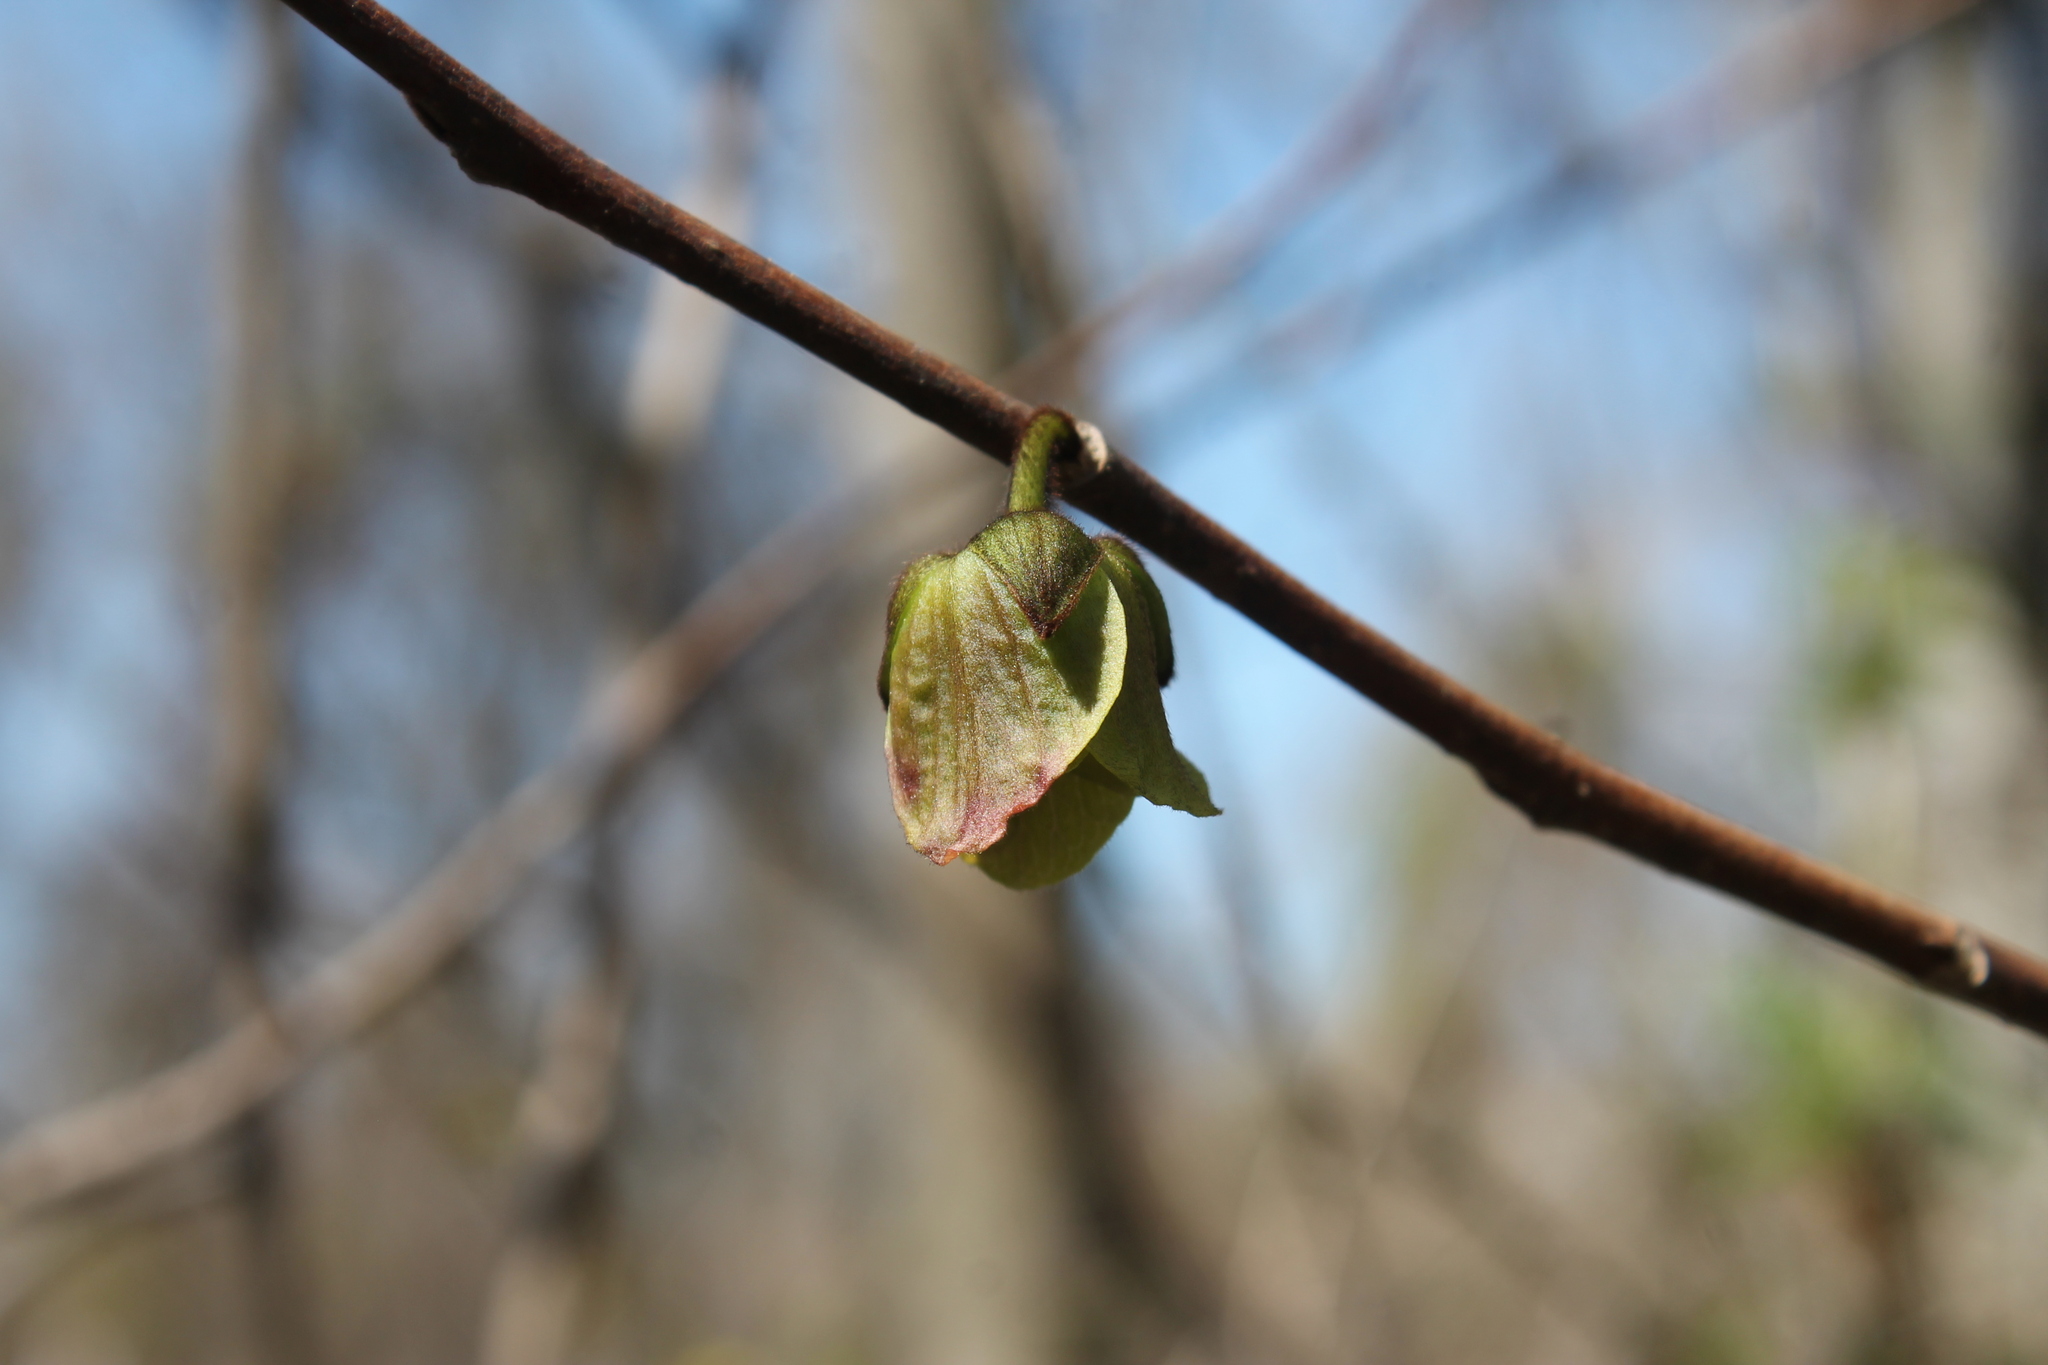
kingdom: Plantae
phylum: Tracheophyta
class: Magnoliopsida
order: Magnoliales
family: Annonaceae
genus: Asimina
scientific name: Asimina triloba
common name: Dog-banana
